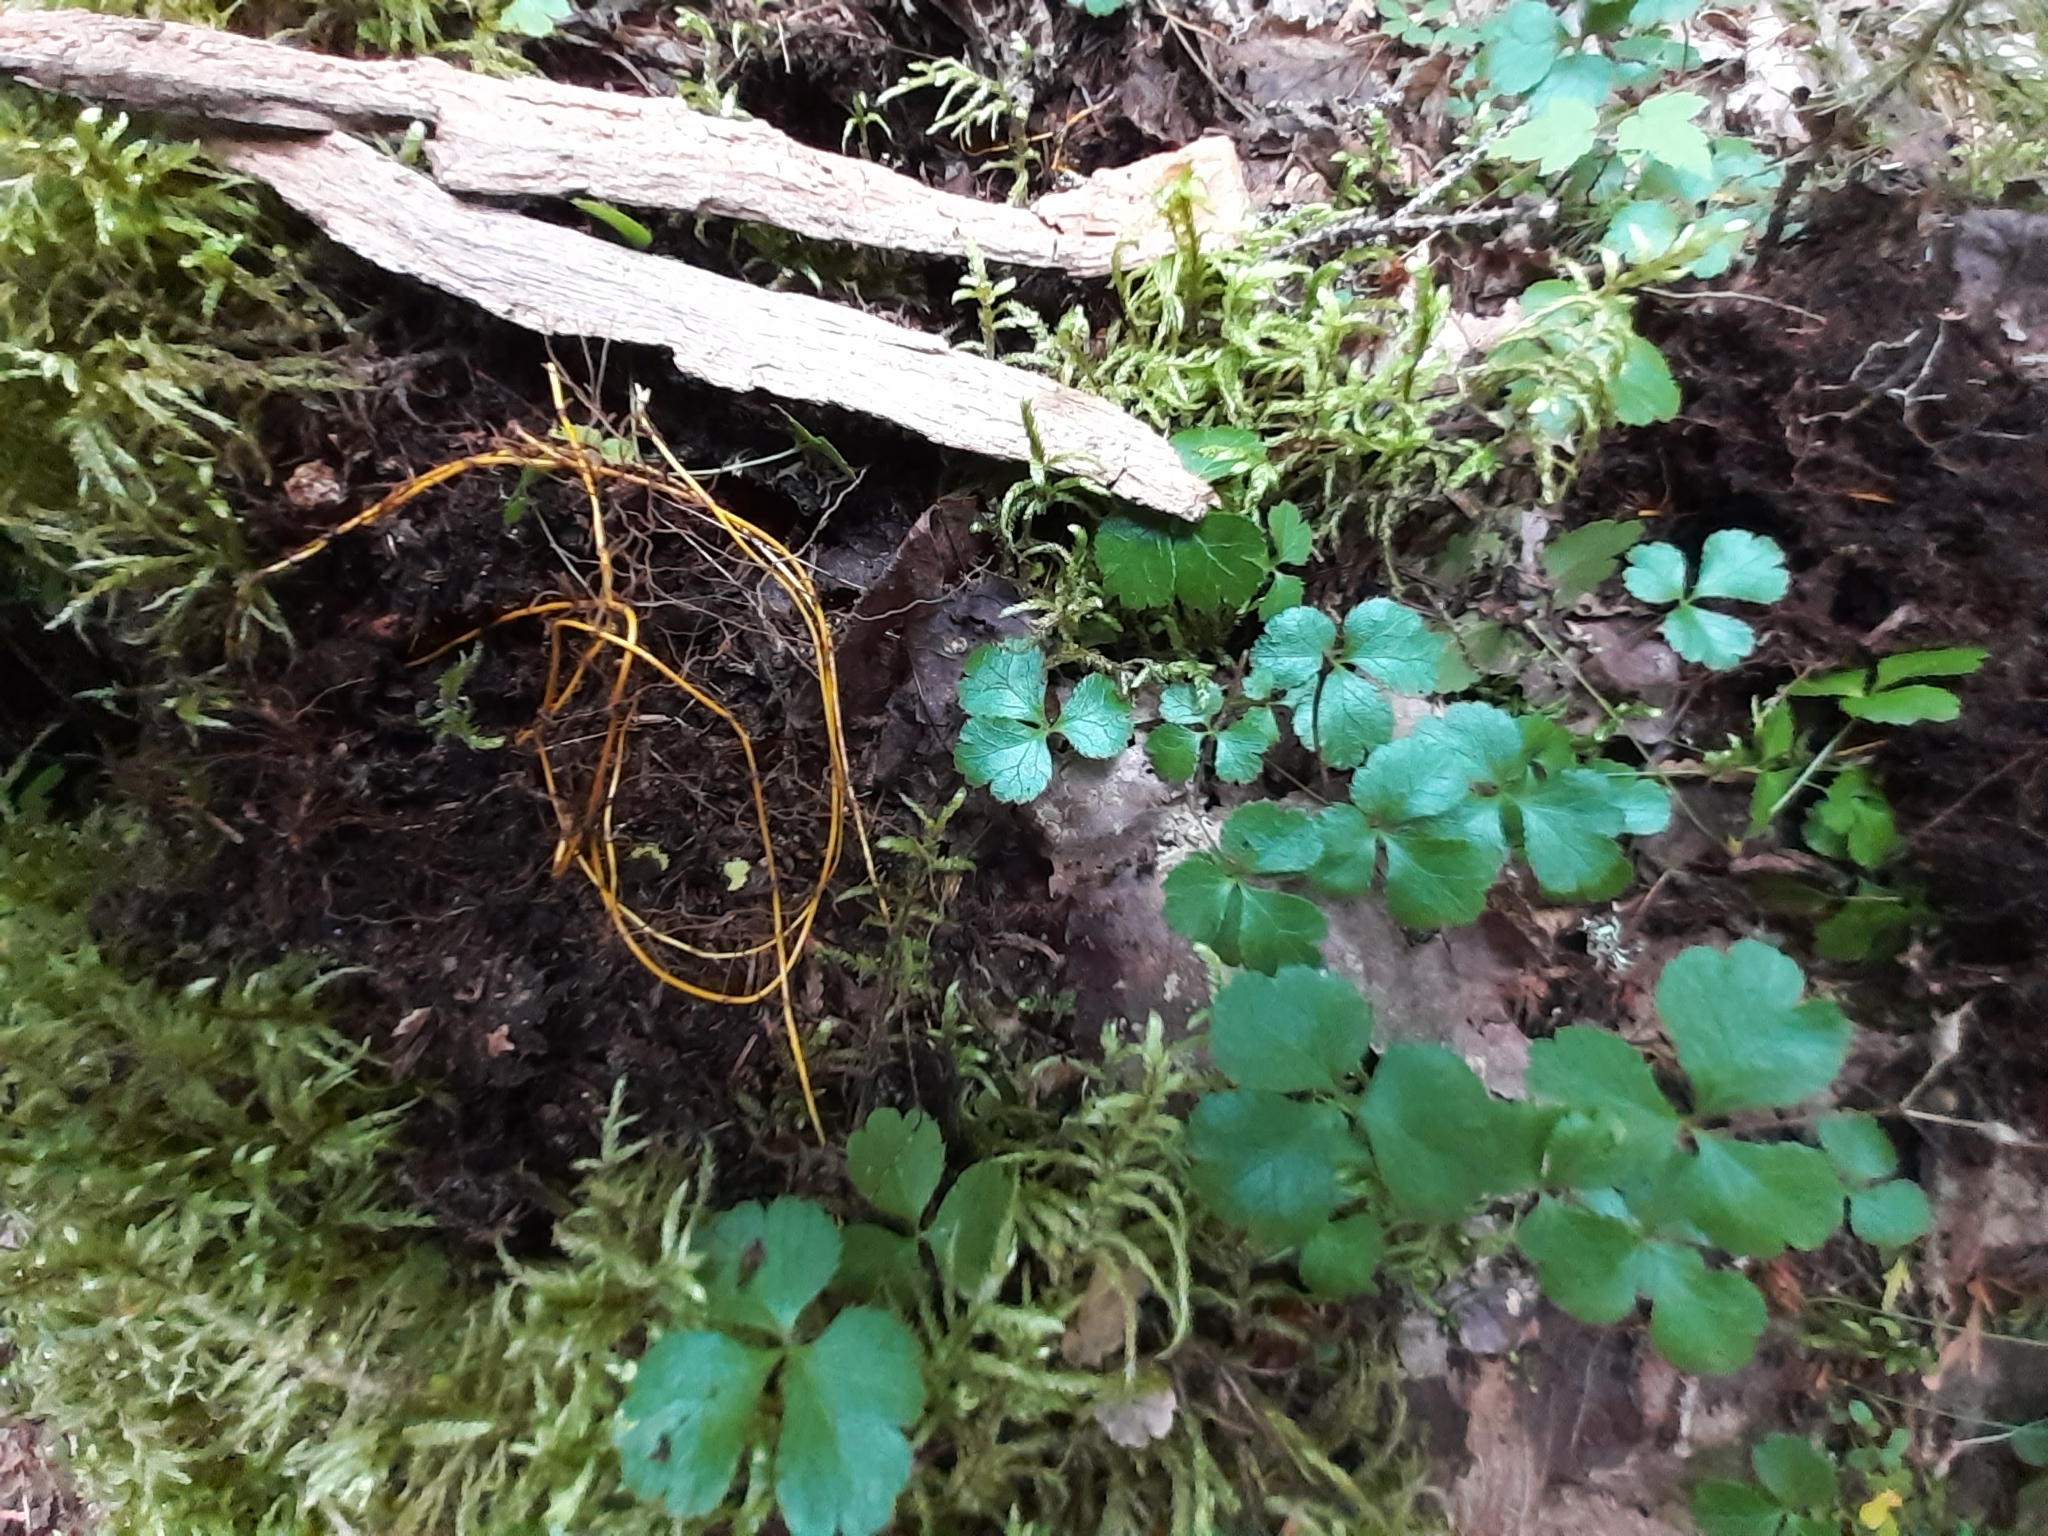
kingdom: Plantae
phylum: Tracheophyta
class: Magnoliopsida
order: Ranunculales
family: Ranunculaceae
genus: Coptis
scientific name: Coptis trifolia
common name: Canker-root
